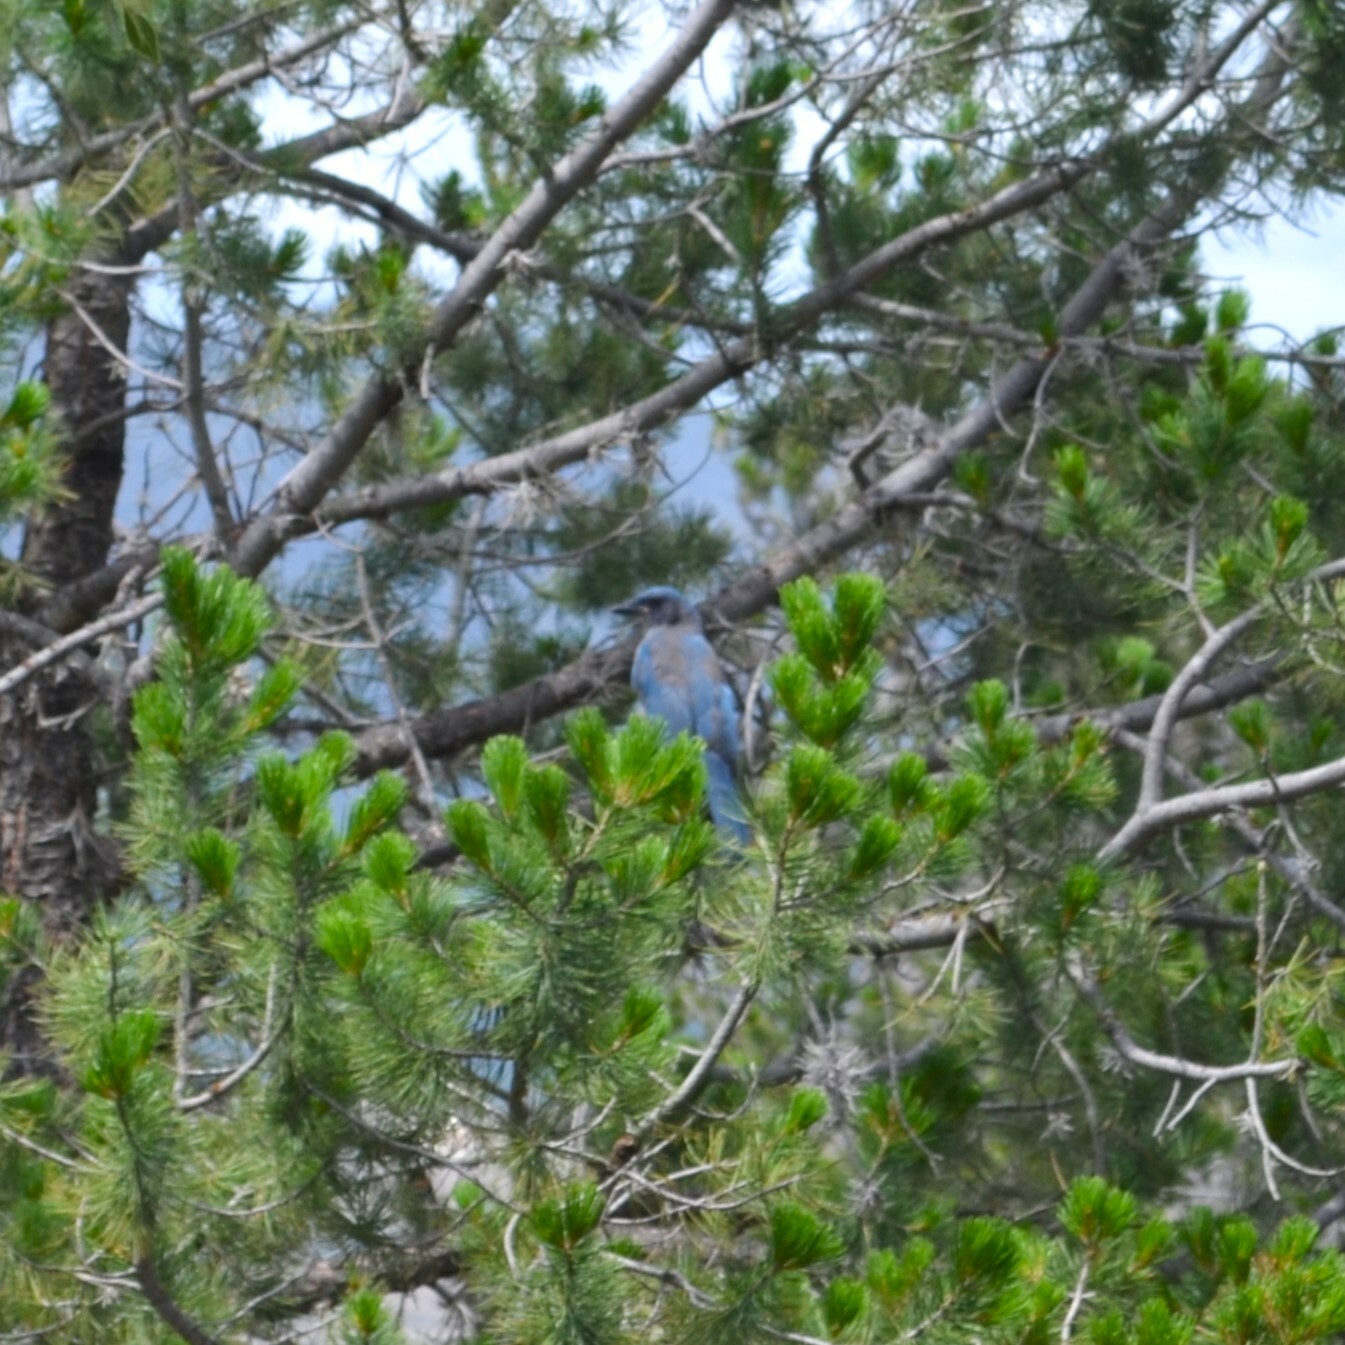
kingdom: Animalia
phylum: Chordata
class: Aves
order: Passeriformes
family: Corvidae
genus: Aphelocoma
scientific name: Aphelocoma woodhouseii
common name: Woodhouse's scrub-jay
